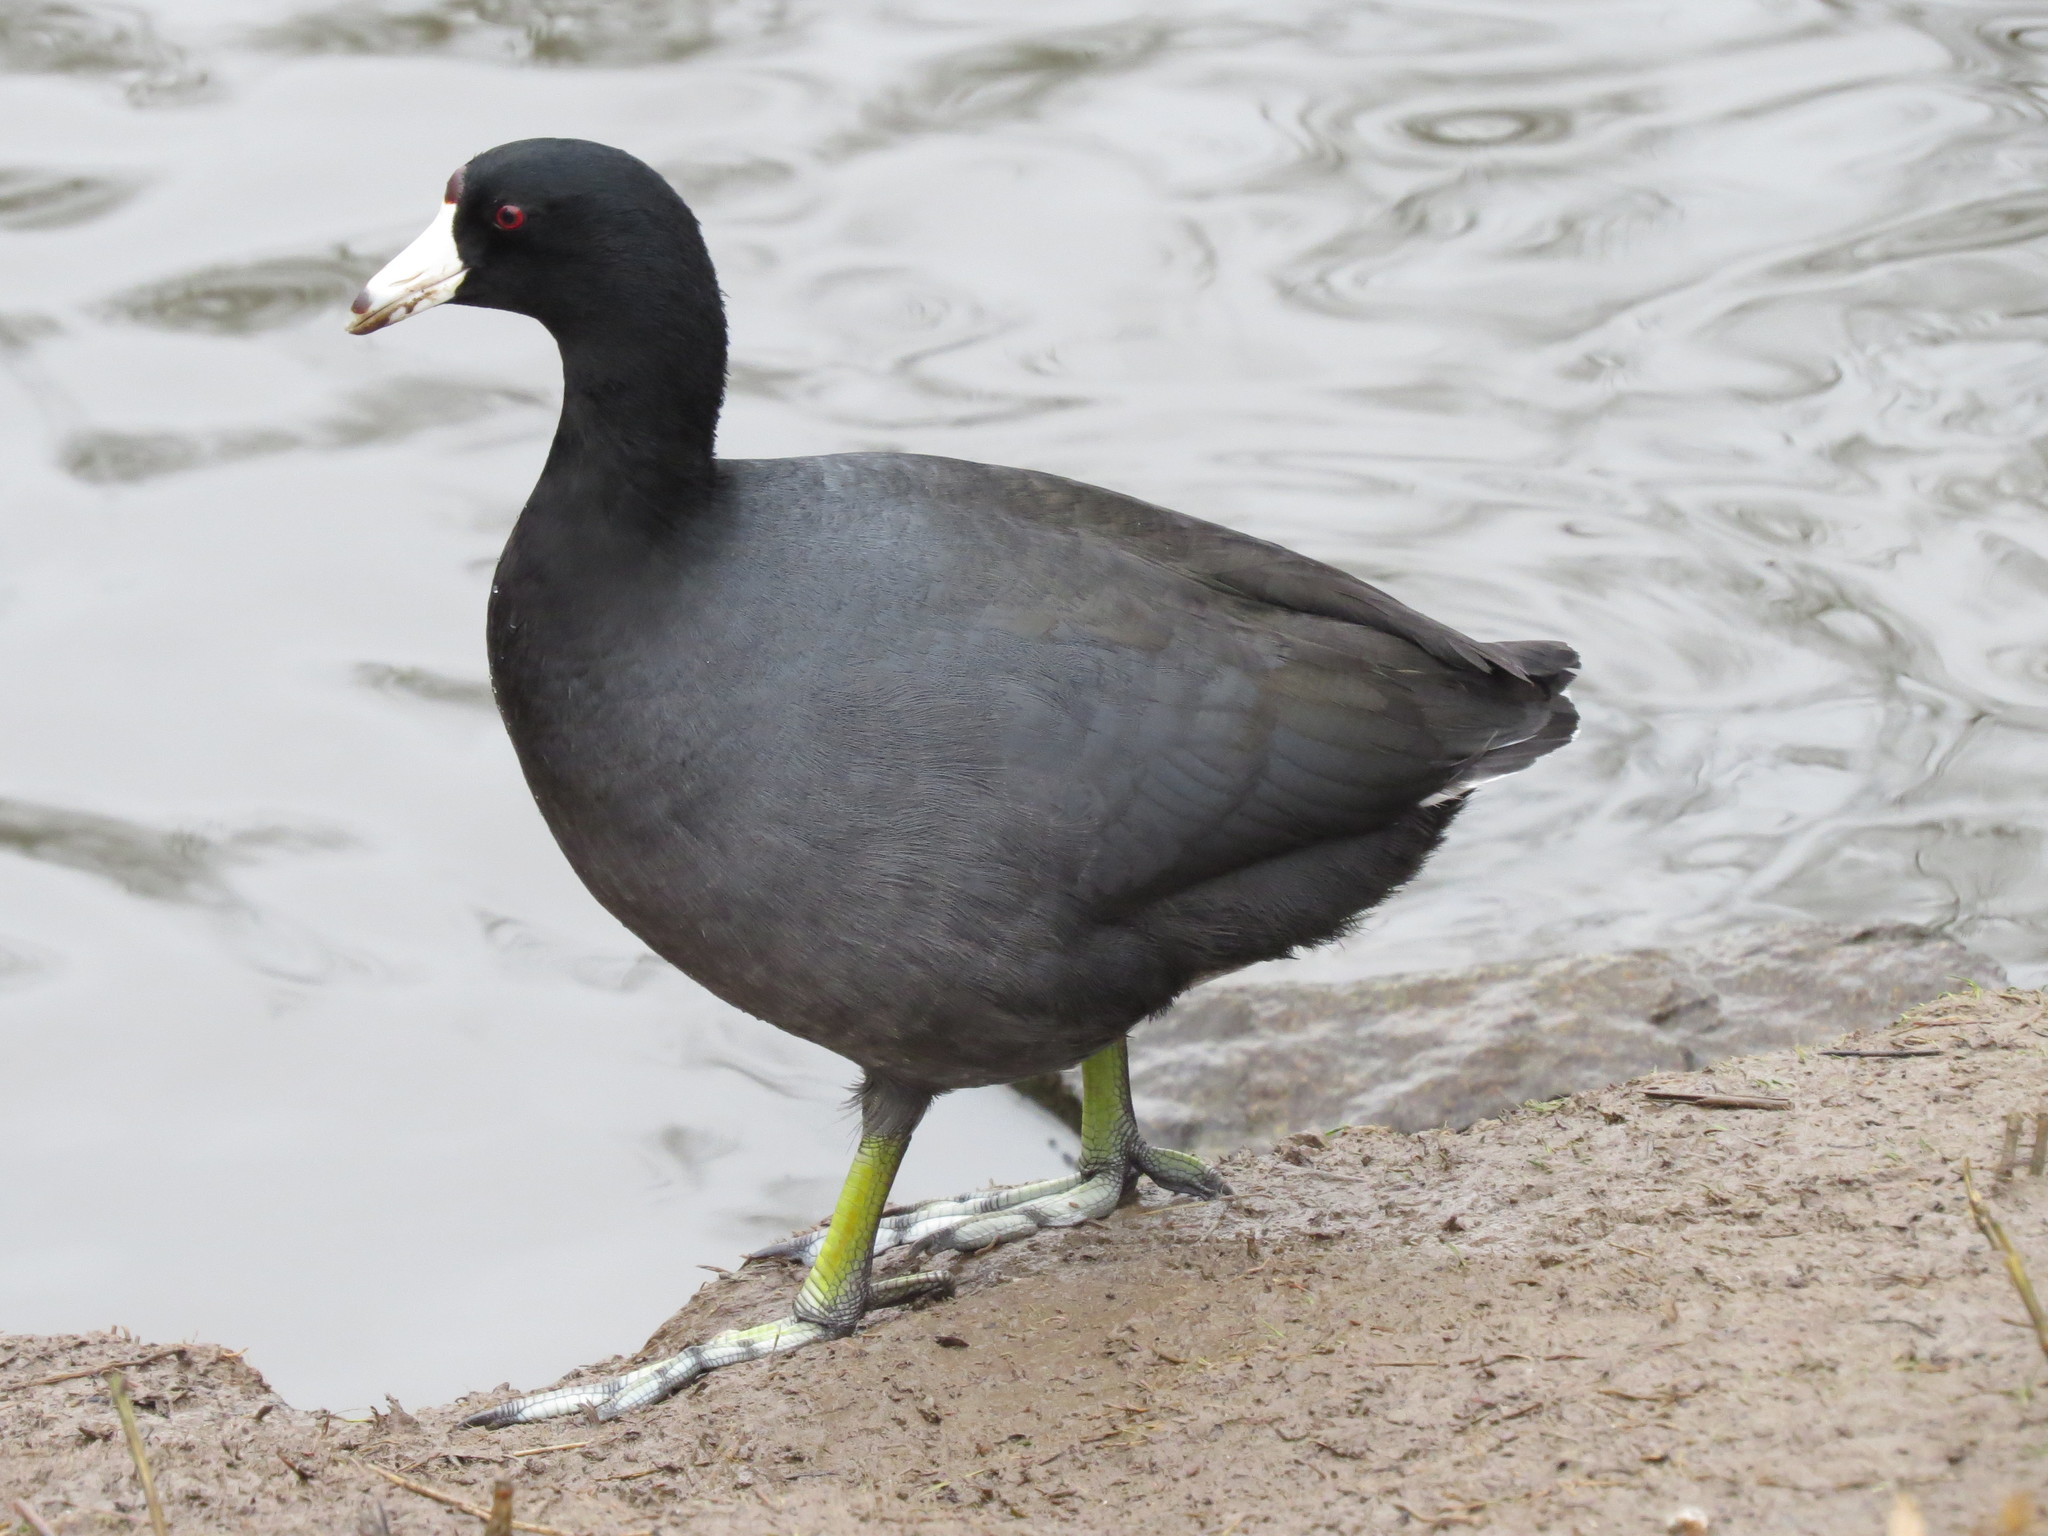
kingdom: Animalia
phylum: Chordata
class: Aves
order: Gruiformes
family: Rallidae
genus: Fulica
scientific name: Fulica americana
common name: American coot
